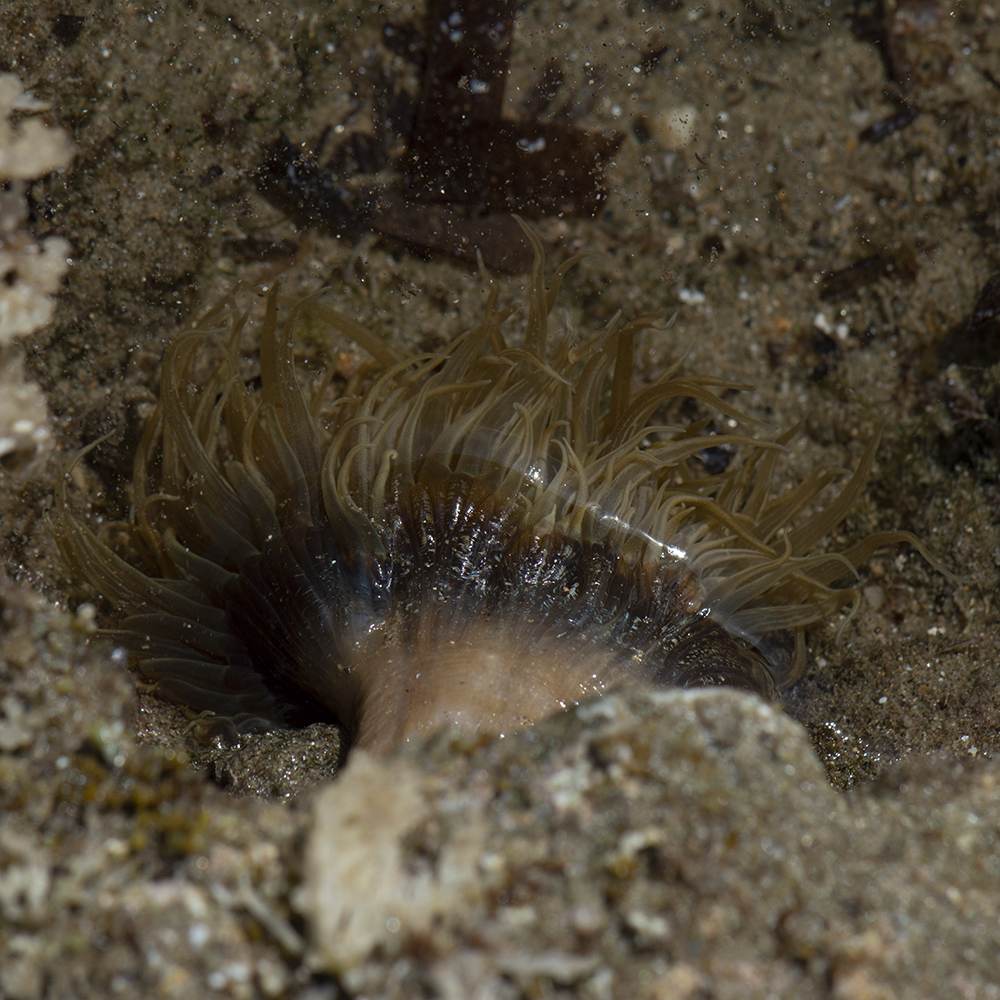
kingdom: Animalia
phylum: Cnidaria
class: Anthozoa
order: Actiniaria
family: Aiptasiidae
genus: Aiptasia
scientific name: Aiptasia couchii
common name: Trumpet anemone
